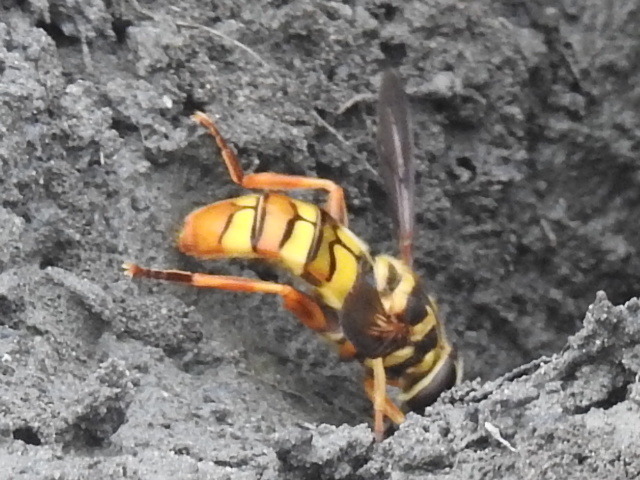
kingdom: Animalia
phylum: Arthropoda
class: Insecta
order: Diptera
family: Syrphidae
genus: Milesia
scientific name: Milesia virginiensis
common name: Virginia giant
